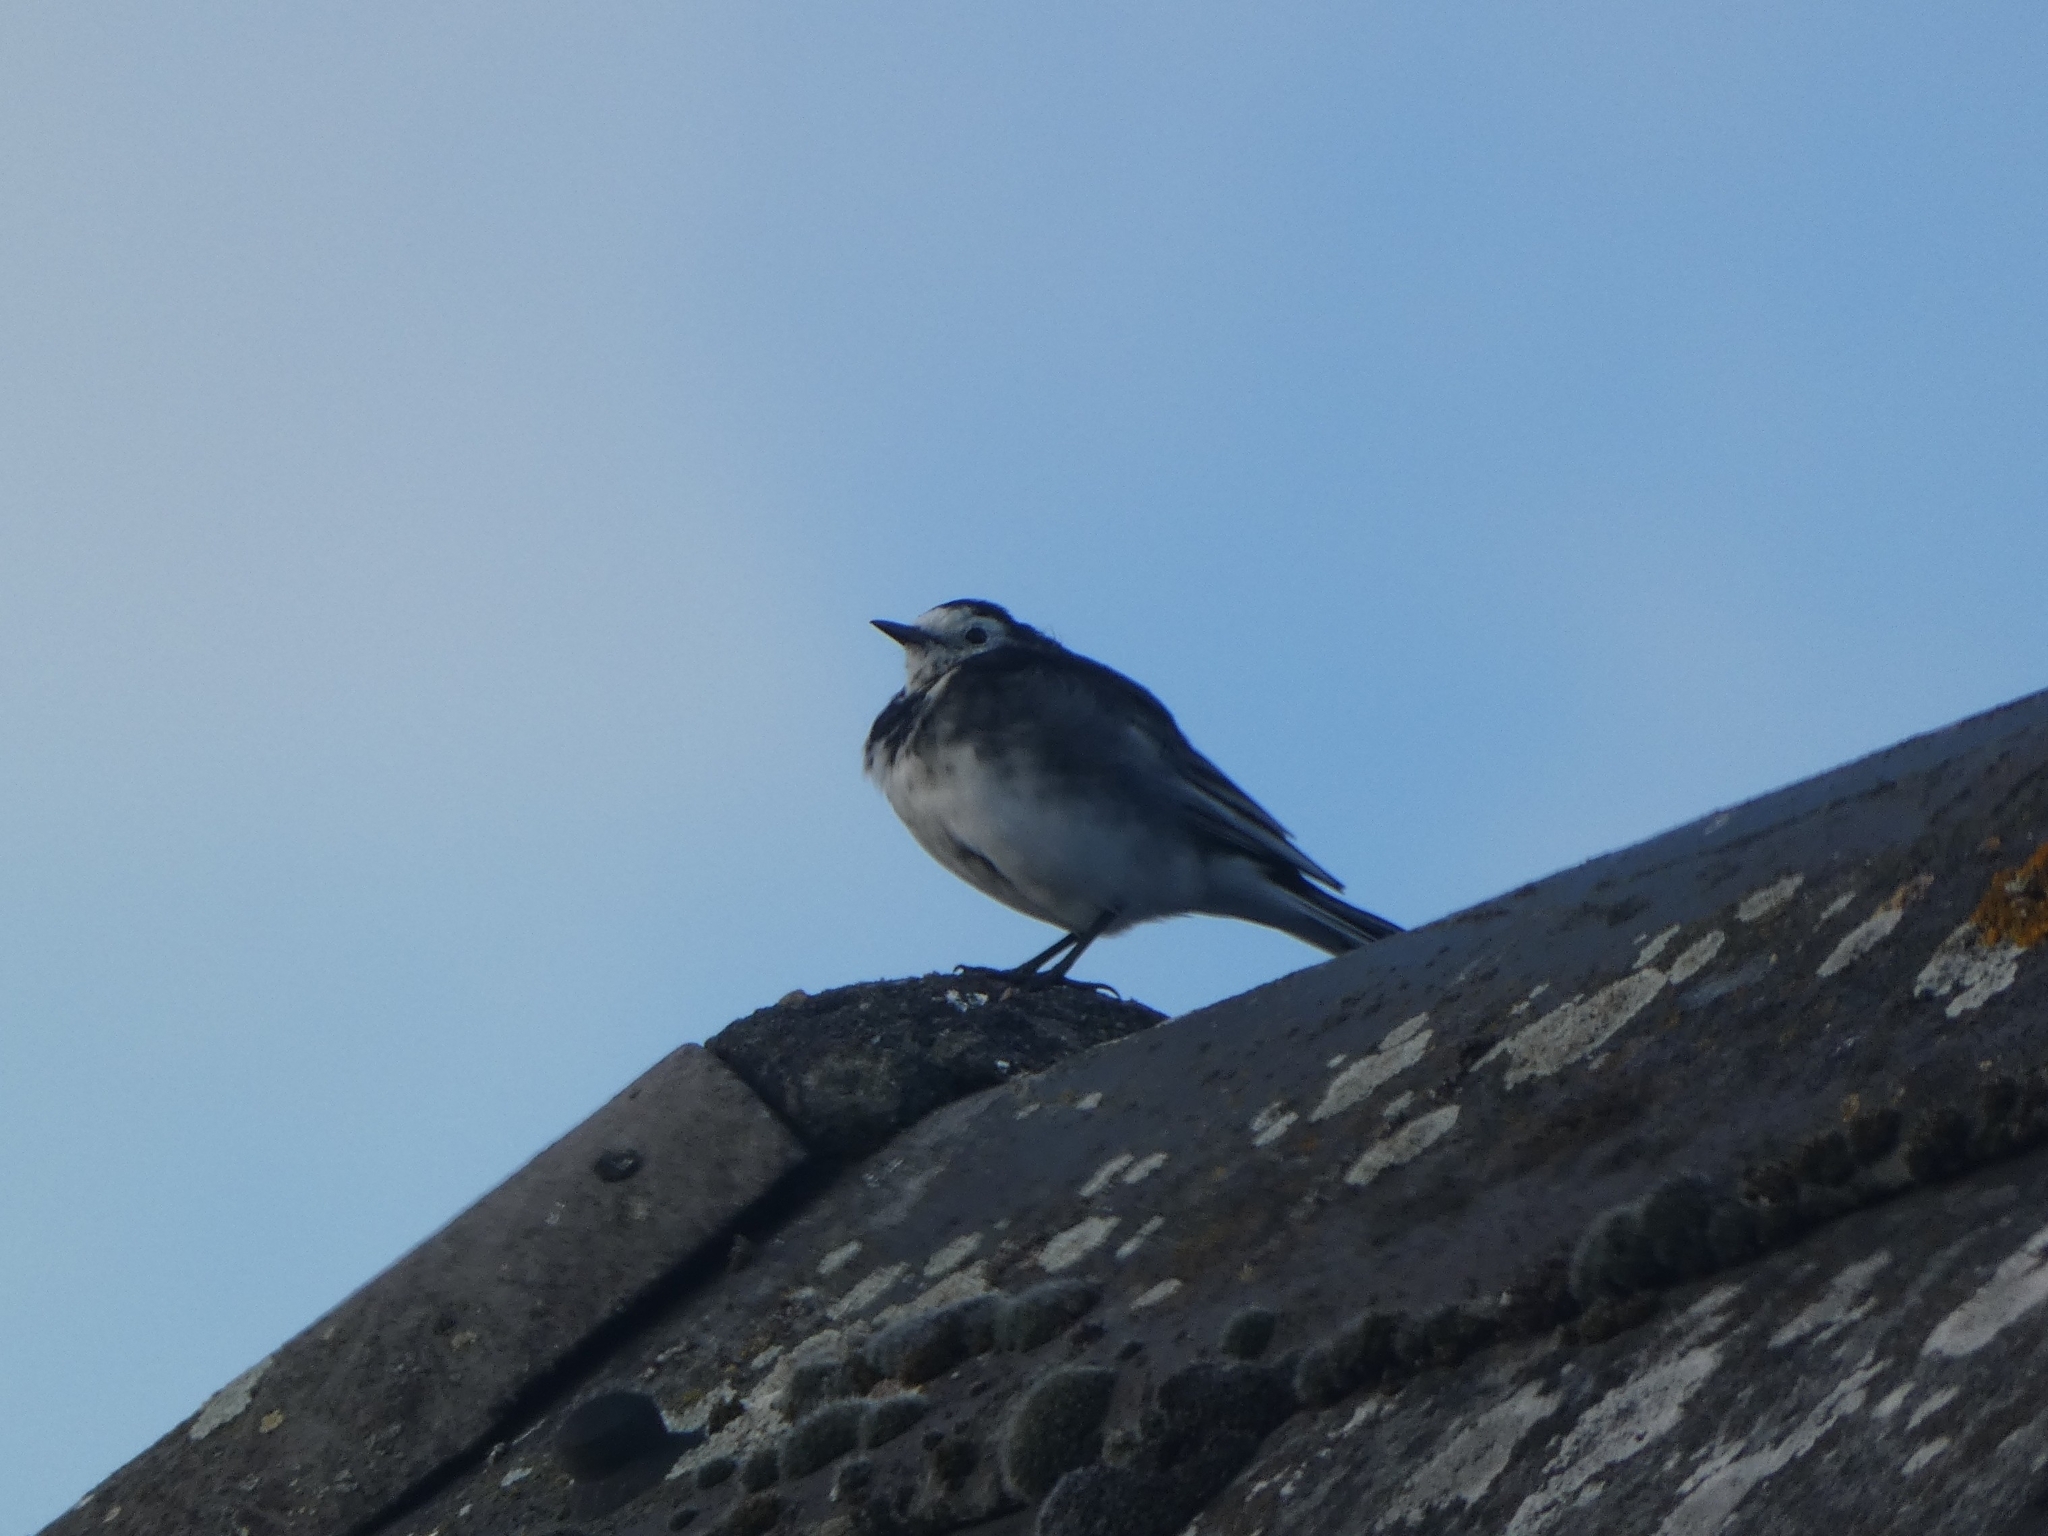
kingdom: Animalia
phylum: Chordata
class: Aves
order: Passeriformes
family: Motacillidae
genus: Motacilla
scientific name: Motacilla alba
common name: White wagtail
